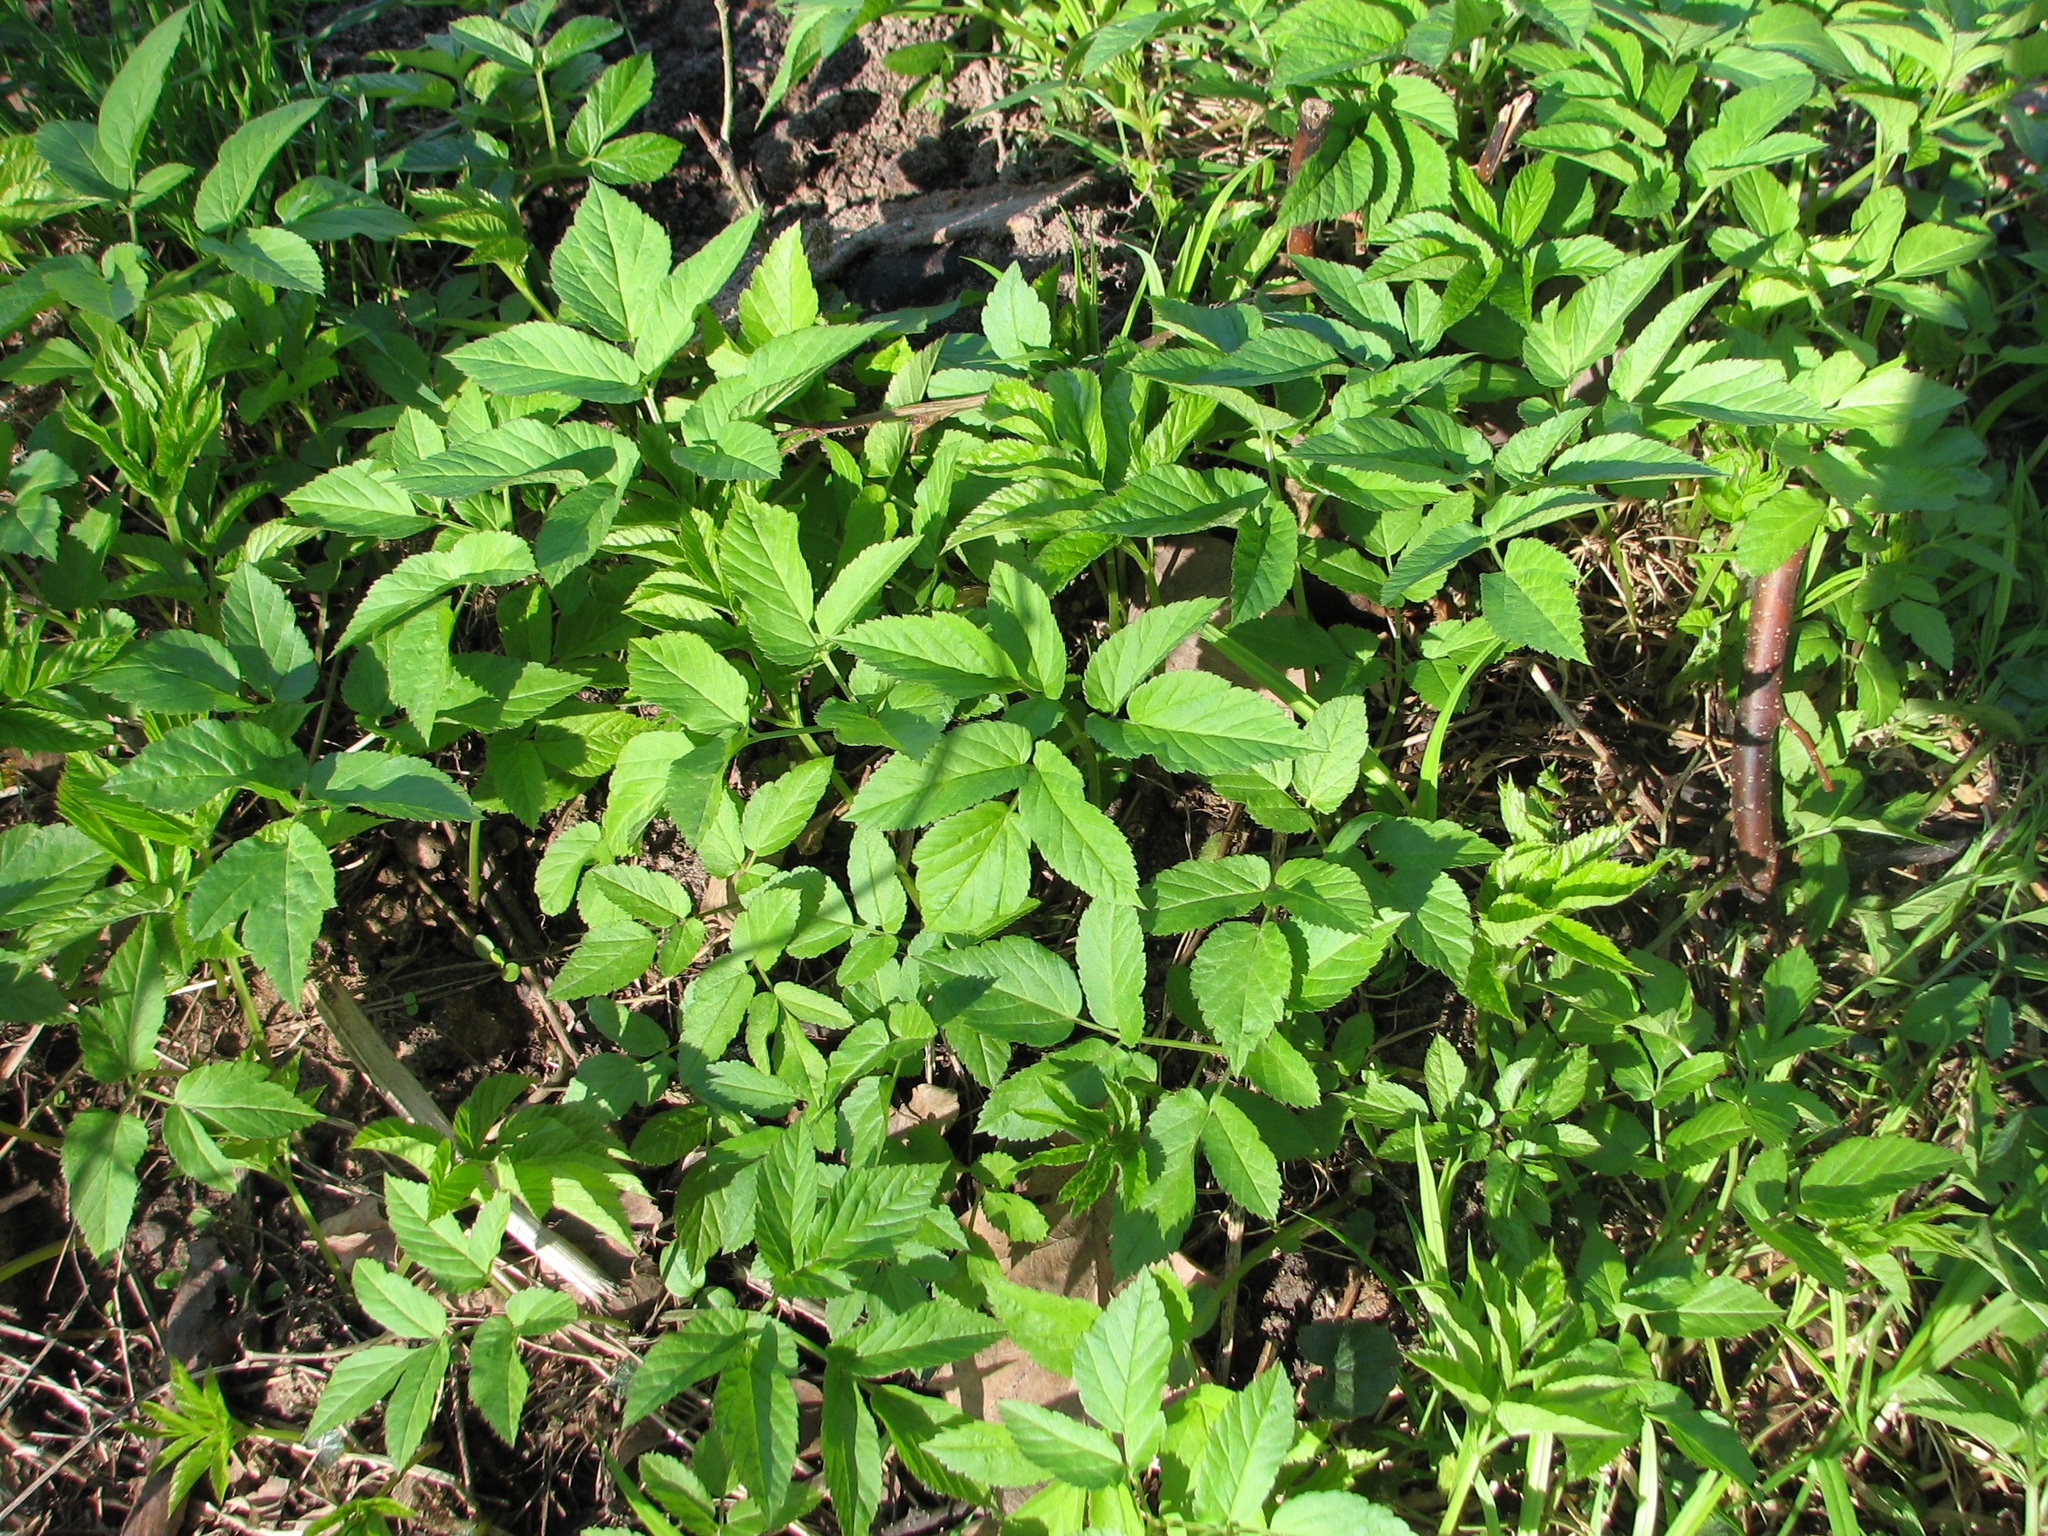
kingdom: Plantae
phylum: Tracheophyta
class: Magnoliopsida
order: Apiales
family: Apiaceae
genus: Aegopodium
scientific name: Aegopodium podagraria
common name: Ground-elder
